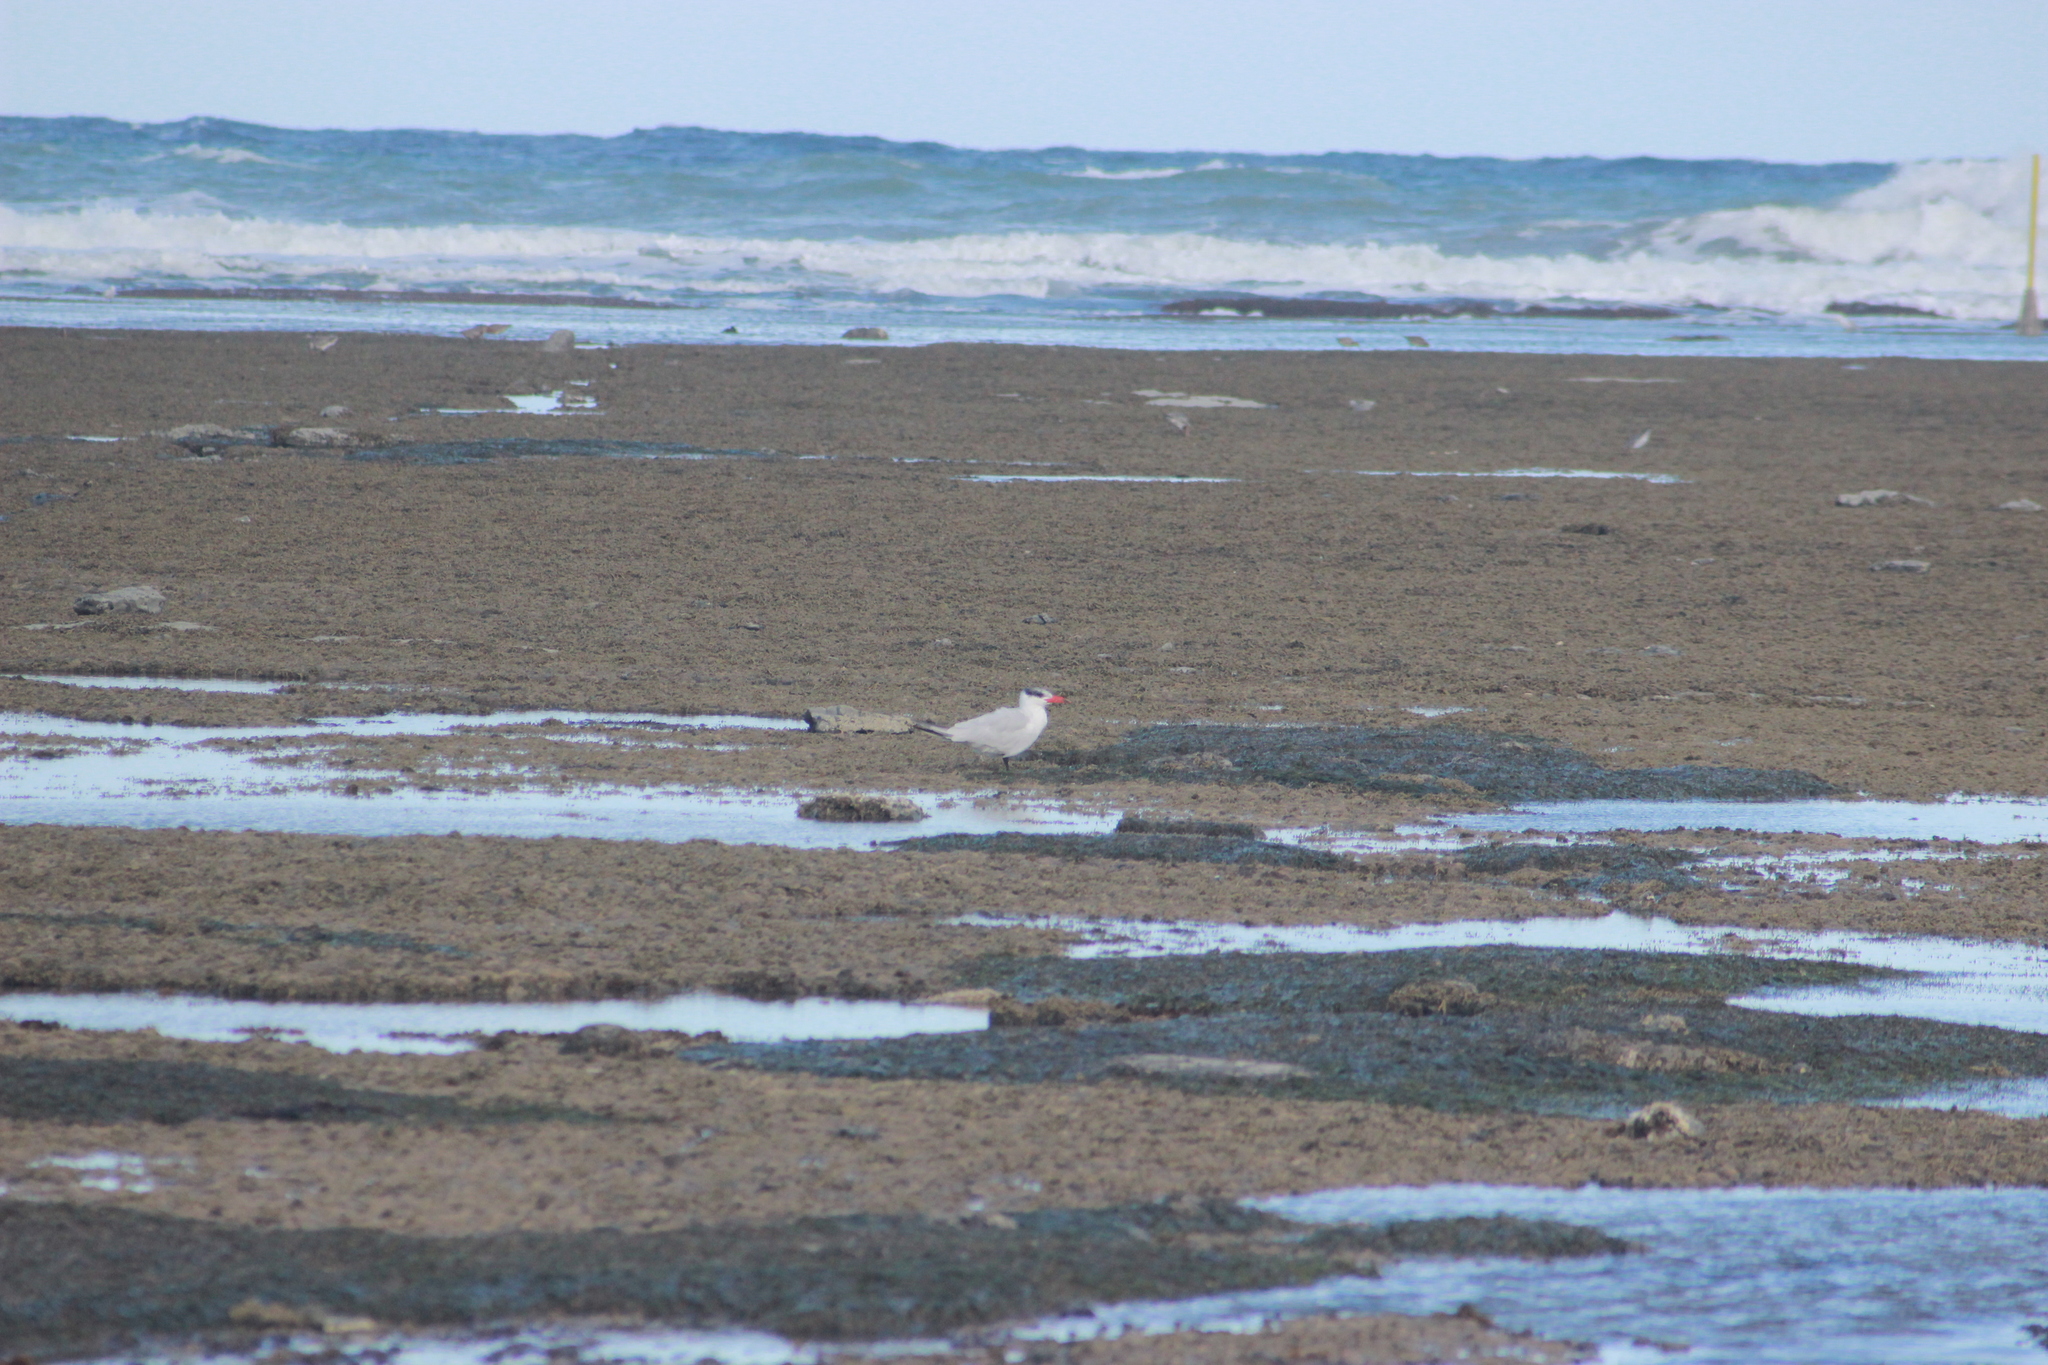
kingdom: Animalia
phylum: Chordata
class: Aves
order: Charadriiformes
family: Laridae
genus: Hydroprogne
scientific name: Hydroprogne caspia
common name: Caspian tern
